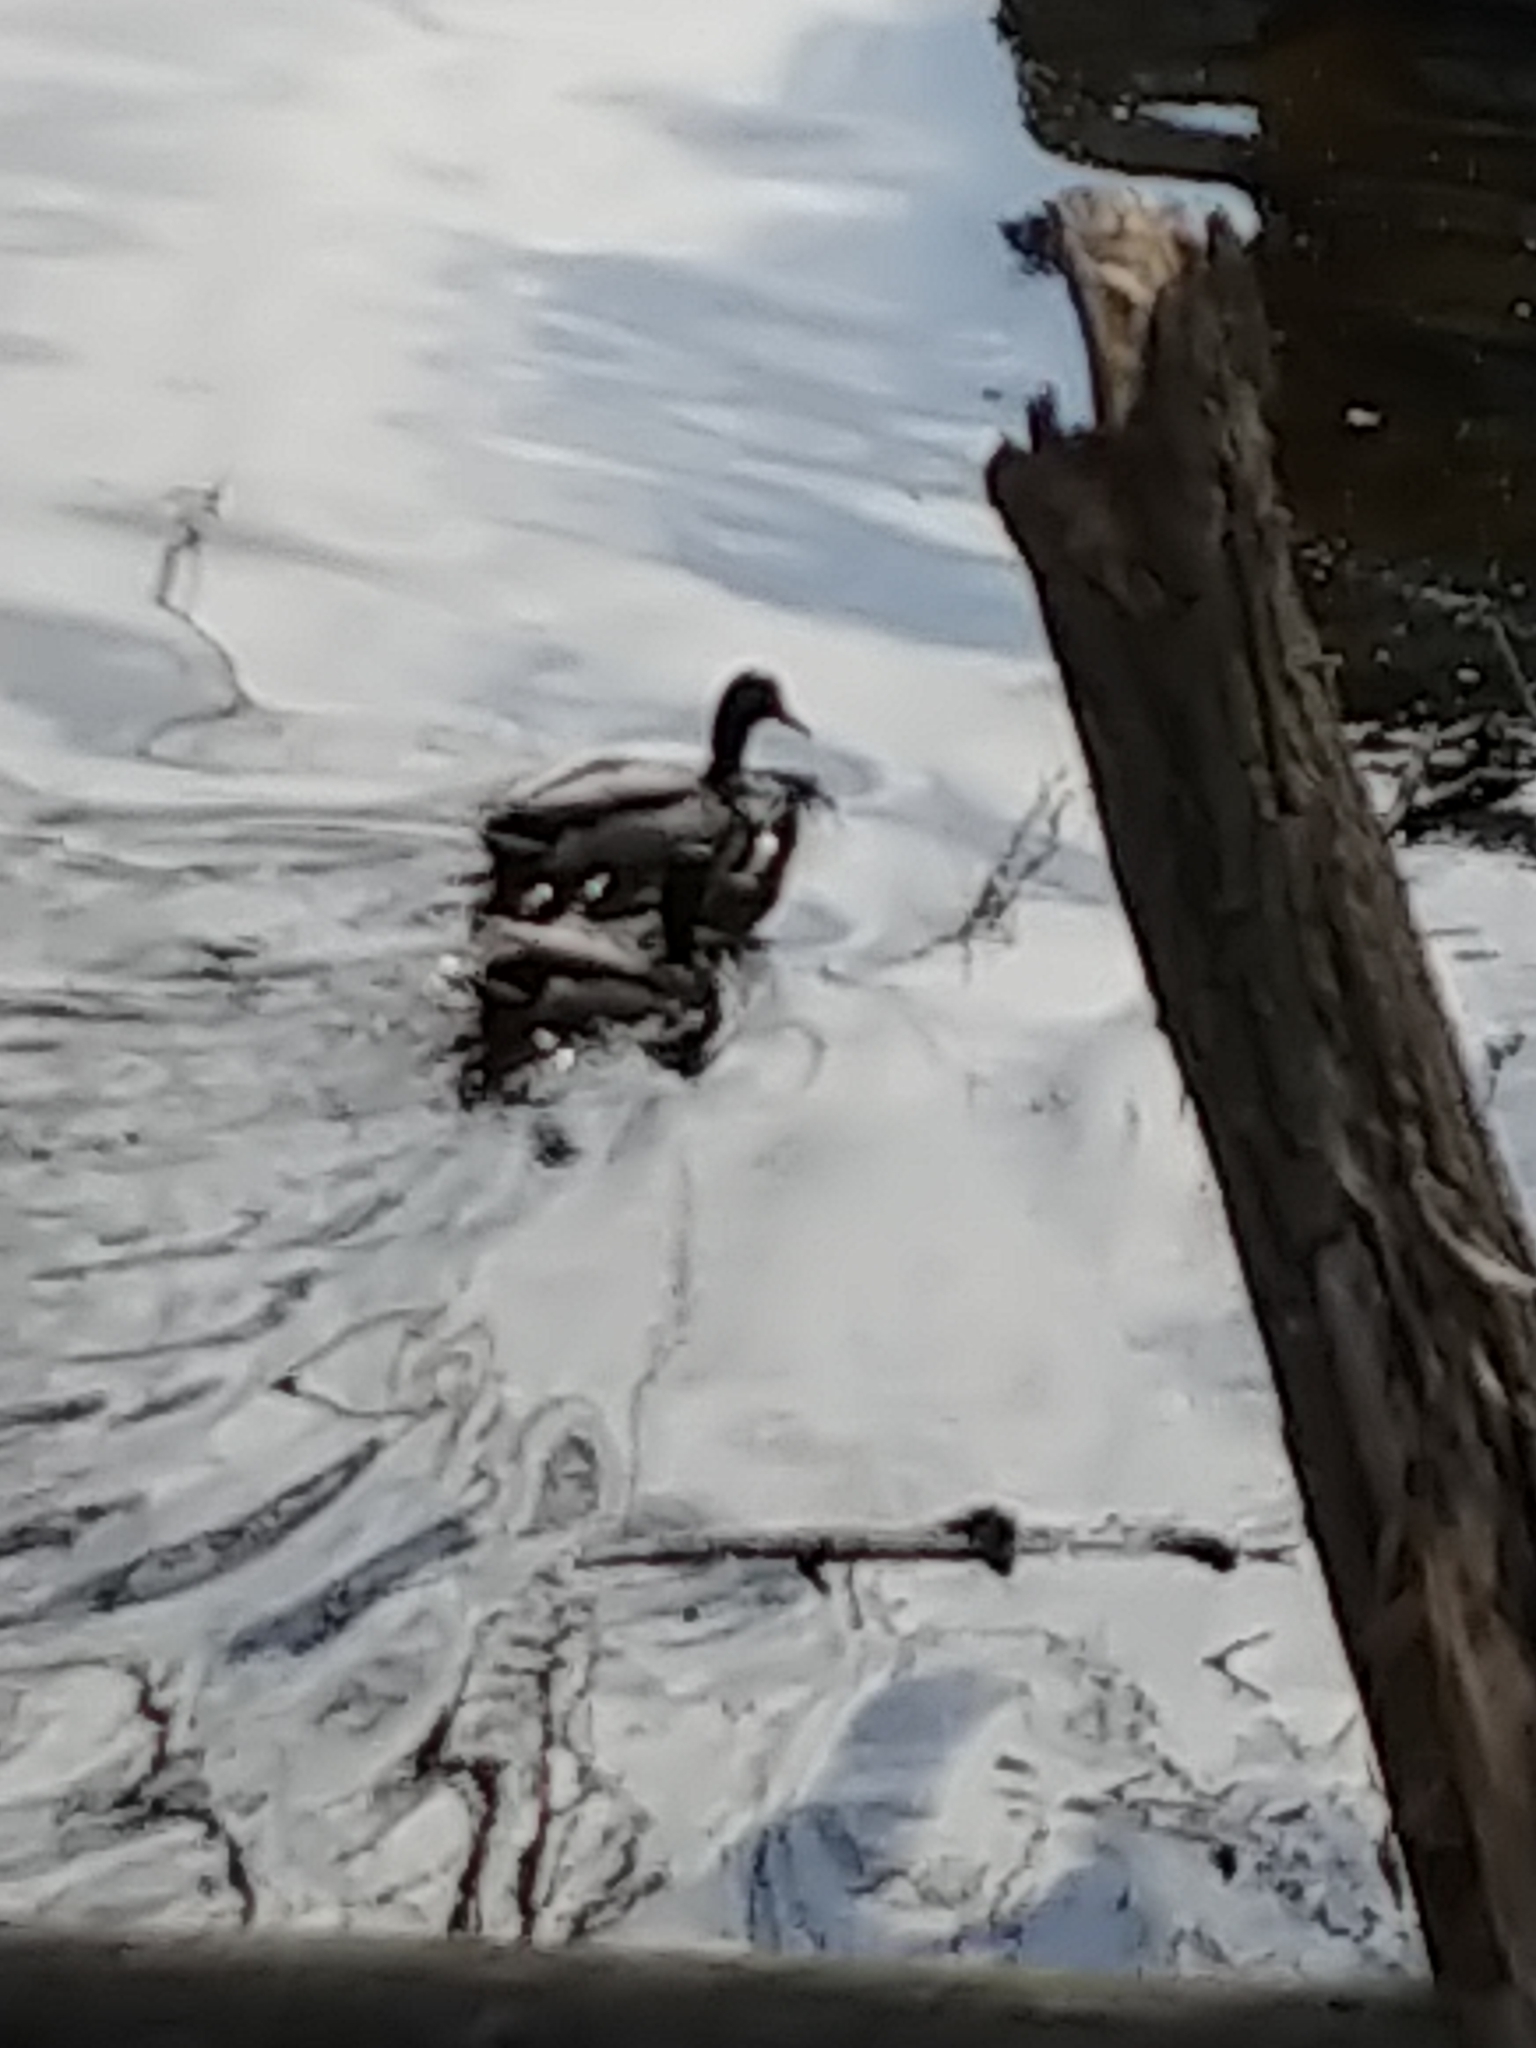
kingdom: Animalia
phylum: Chordata
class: Aves
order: Anseriformes
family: Anatidae
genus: Anas
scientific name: Anas platyrhynchos
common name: Mallard
